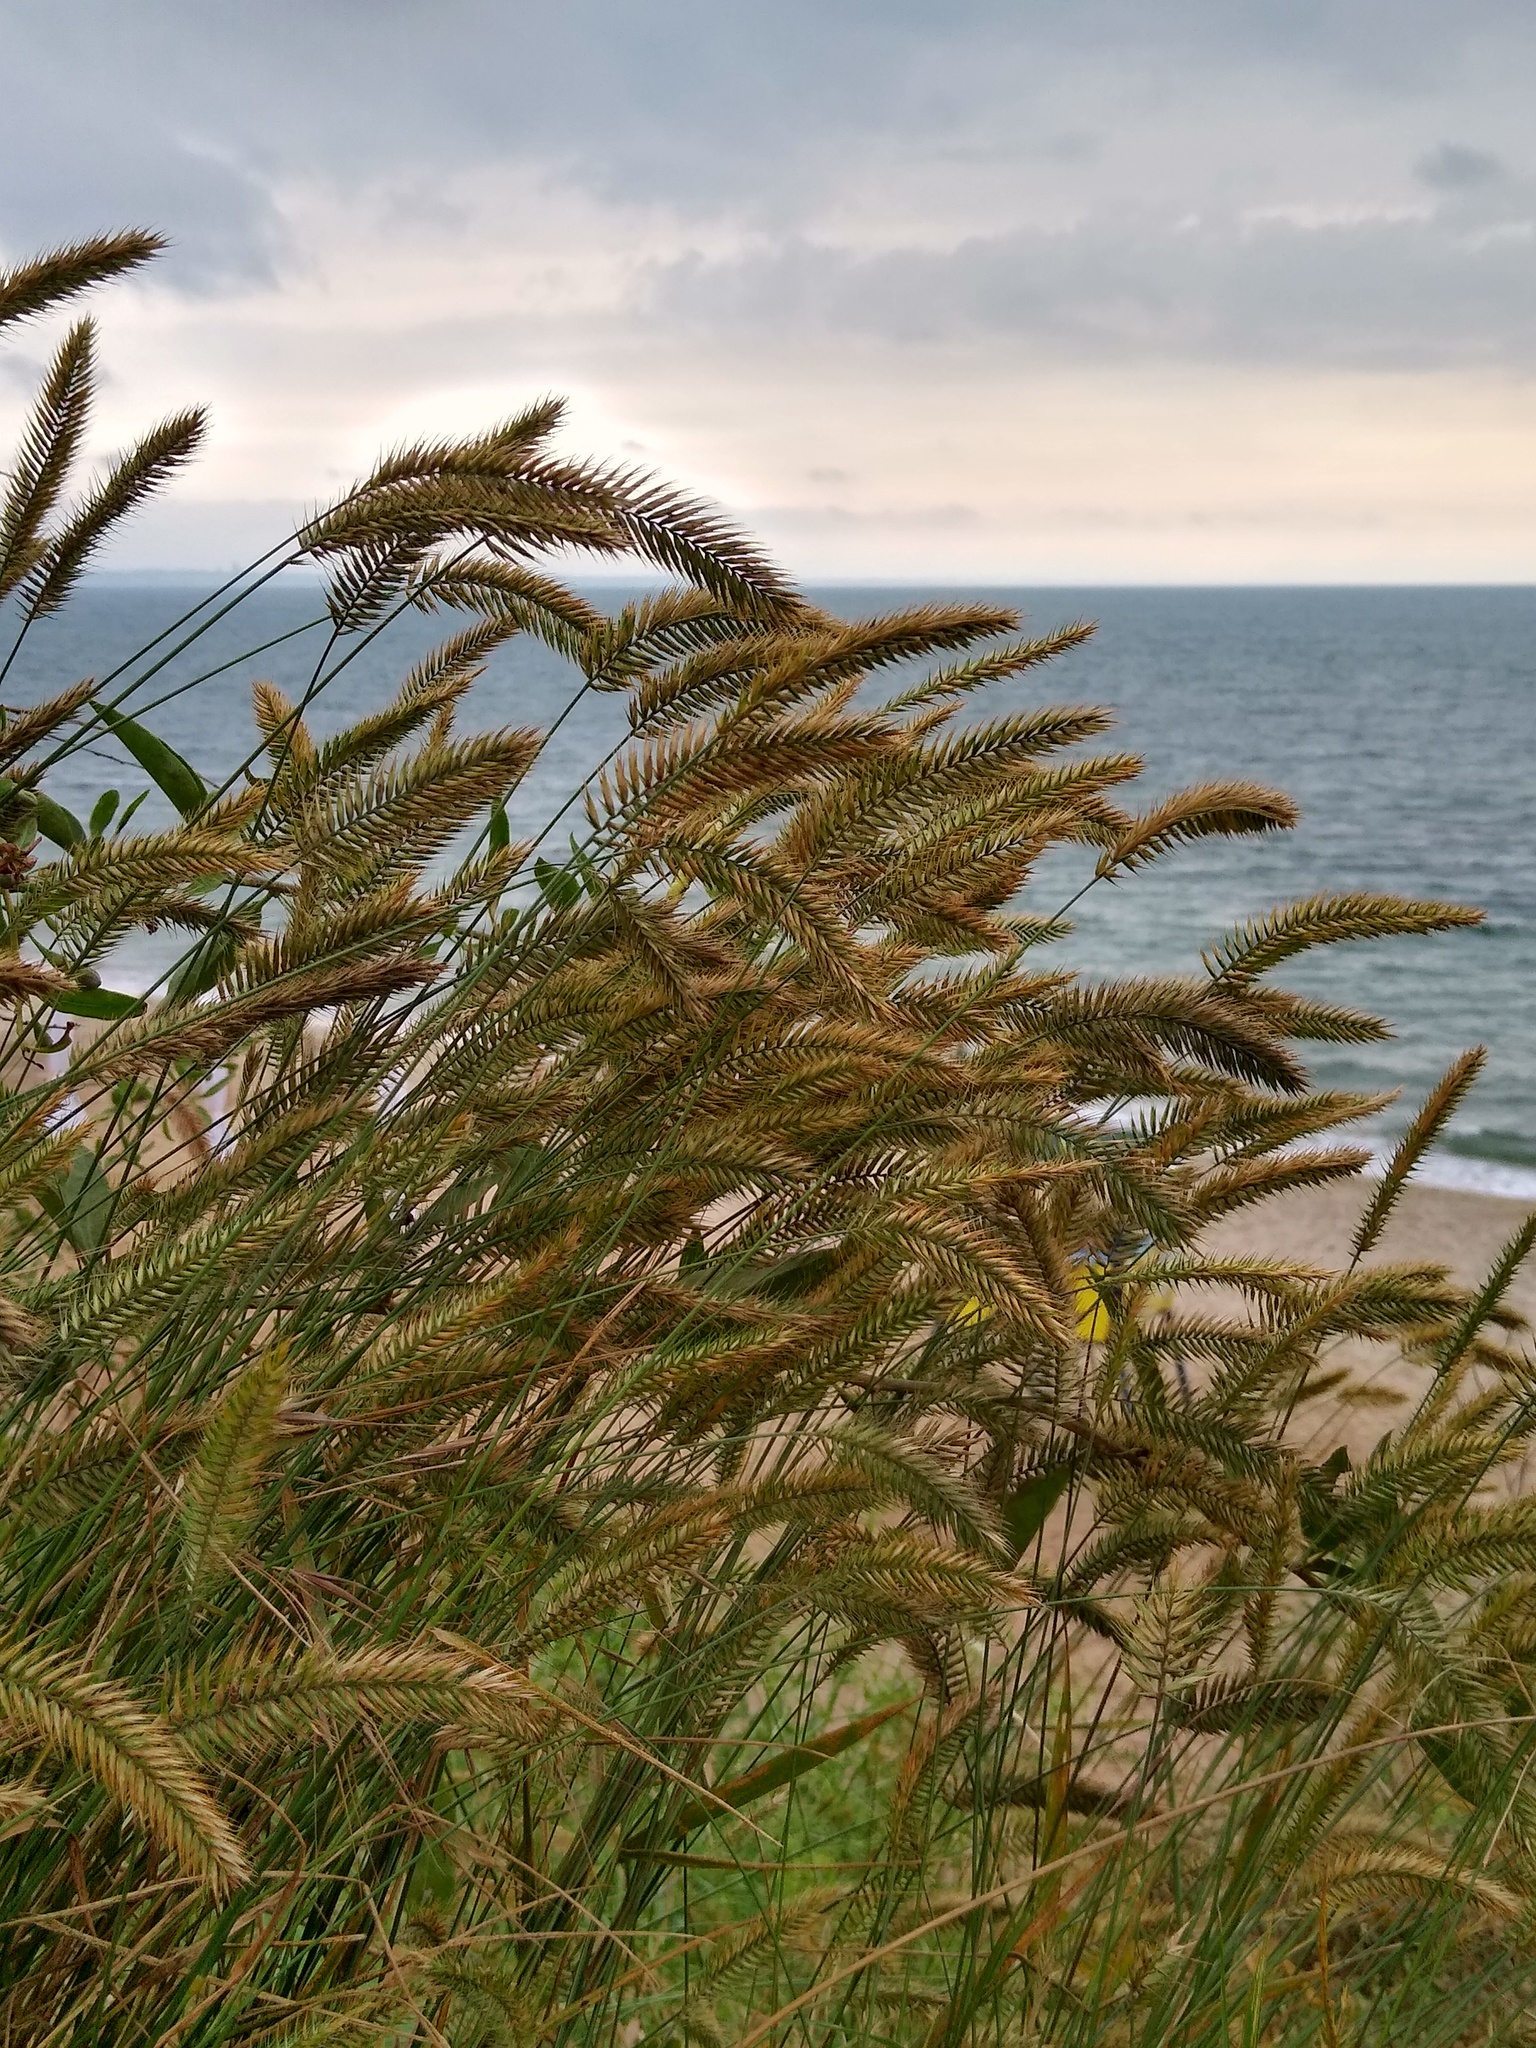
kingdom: Plantae
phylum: Tracheophyta
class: Liliopsida
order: Poales
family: Poaceae
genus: Agropyron
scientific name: Agropyron cristatum
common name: Crested wheatgrass
